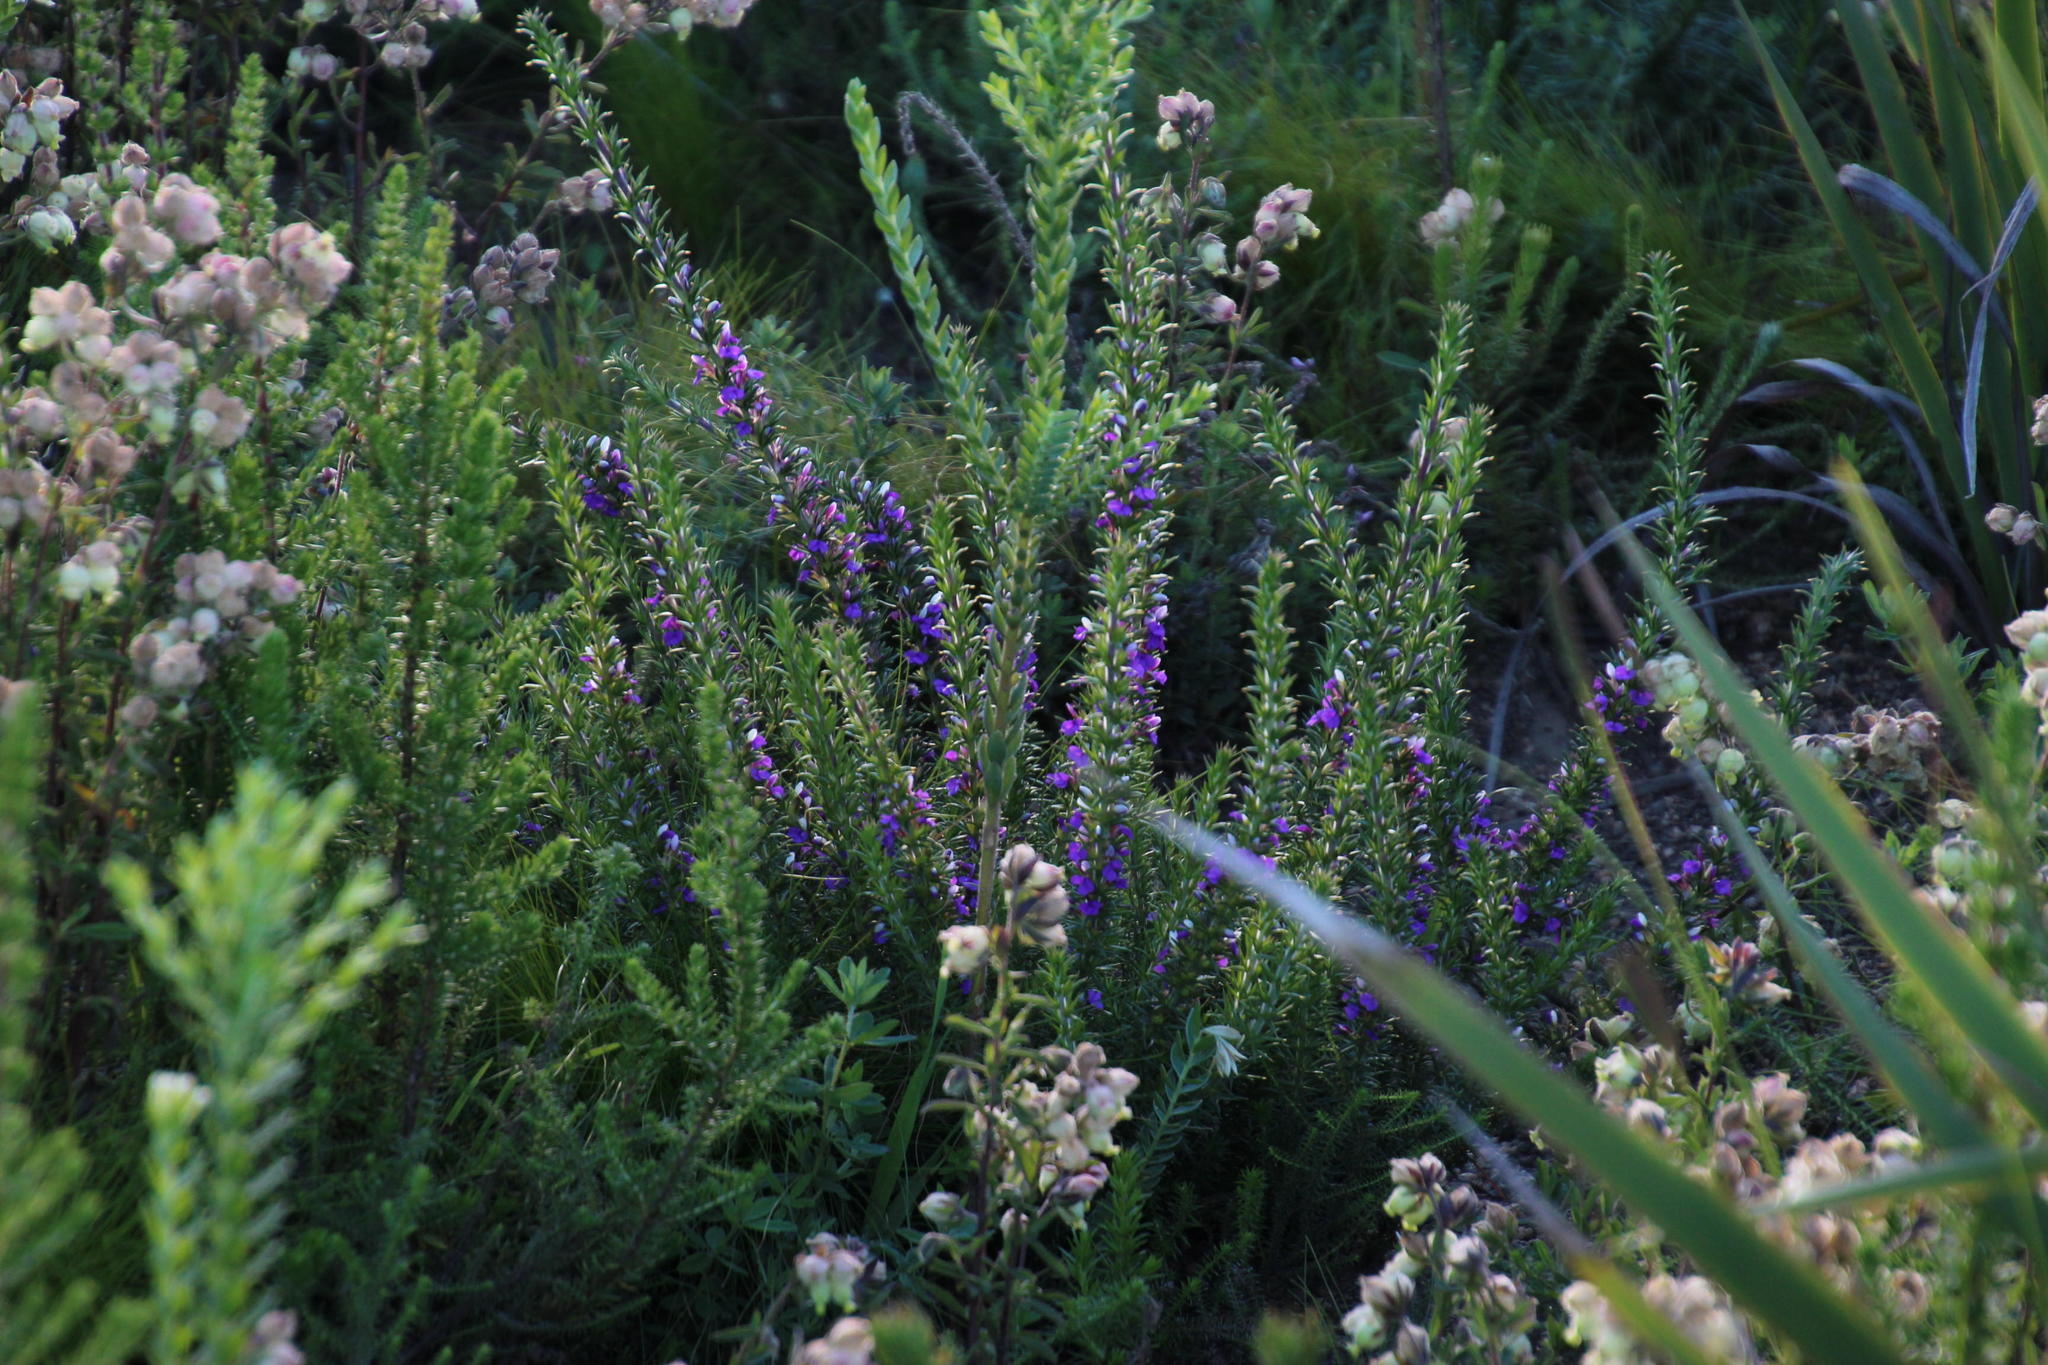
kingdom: Plantae
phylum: Tracheophyta
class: Magnoliopsida
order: Fabales
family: Polygalaceae
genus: Muraltia
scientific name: Muraltia heisteria
